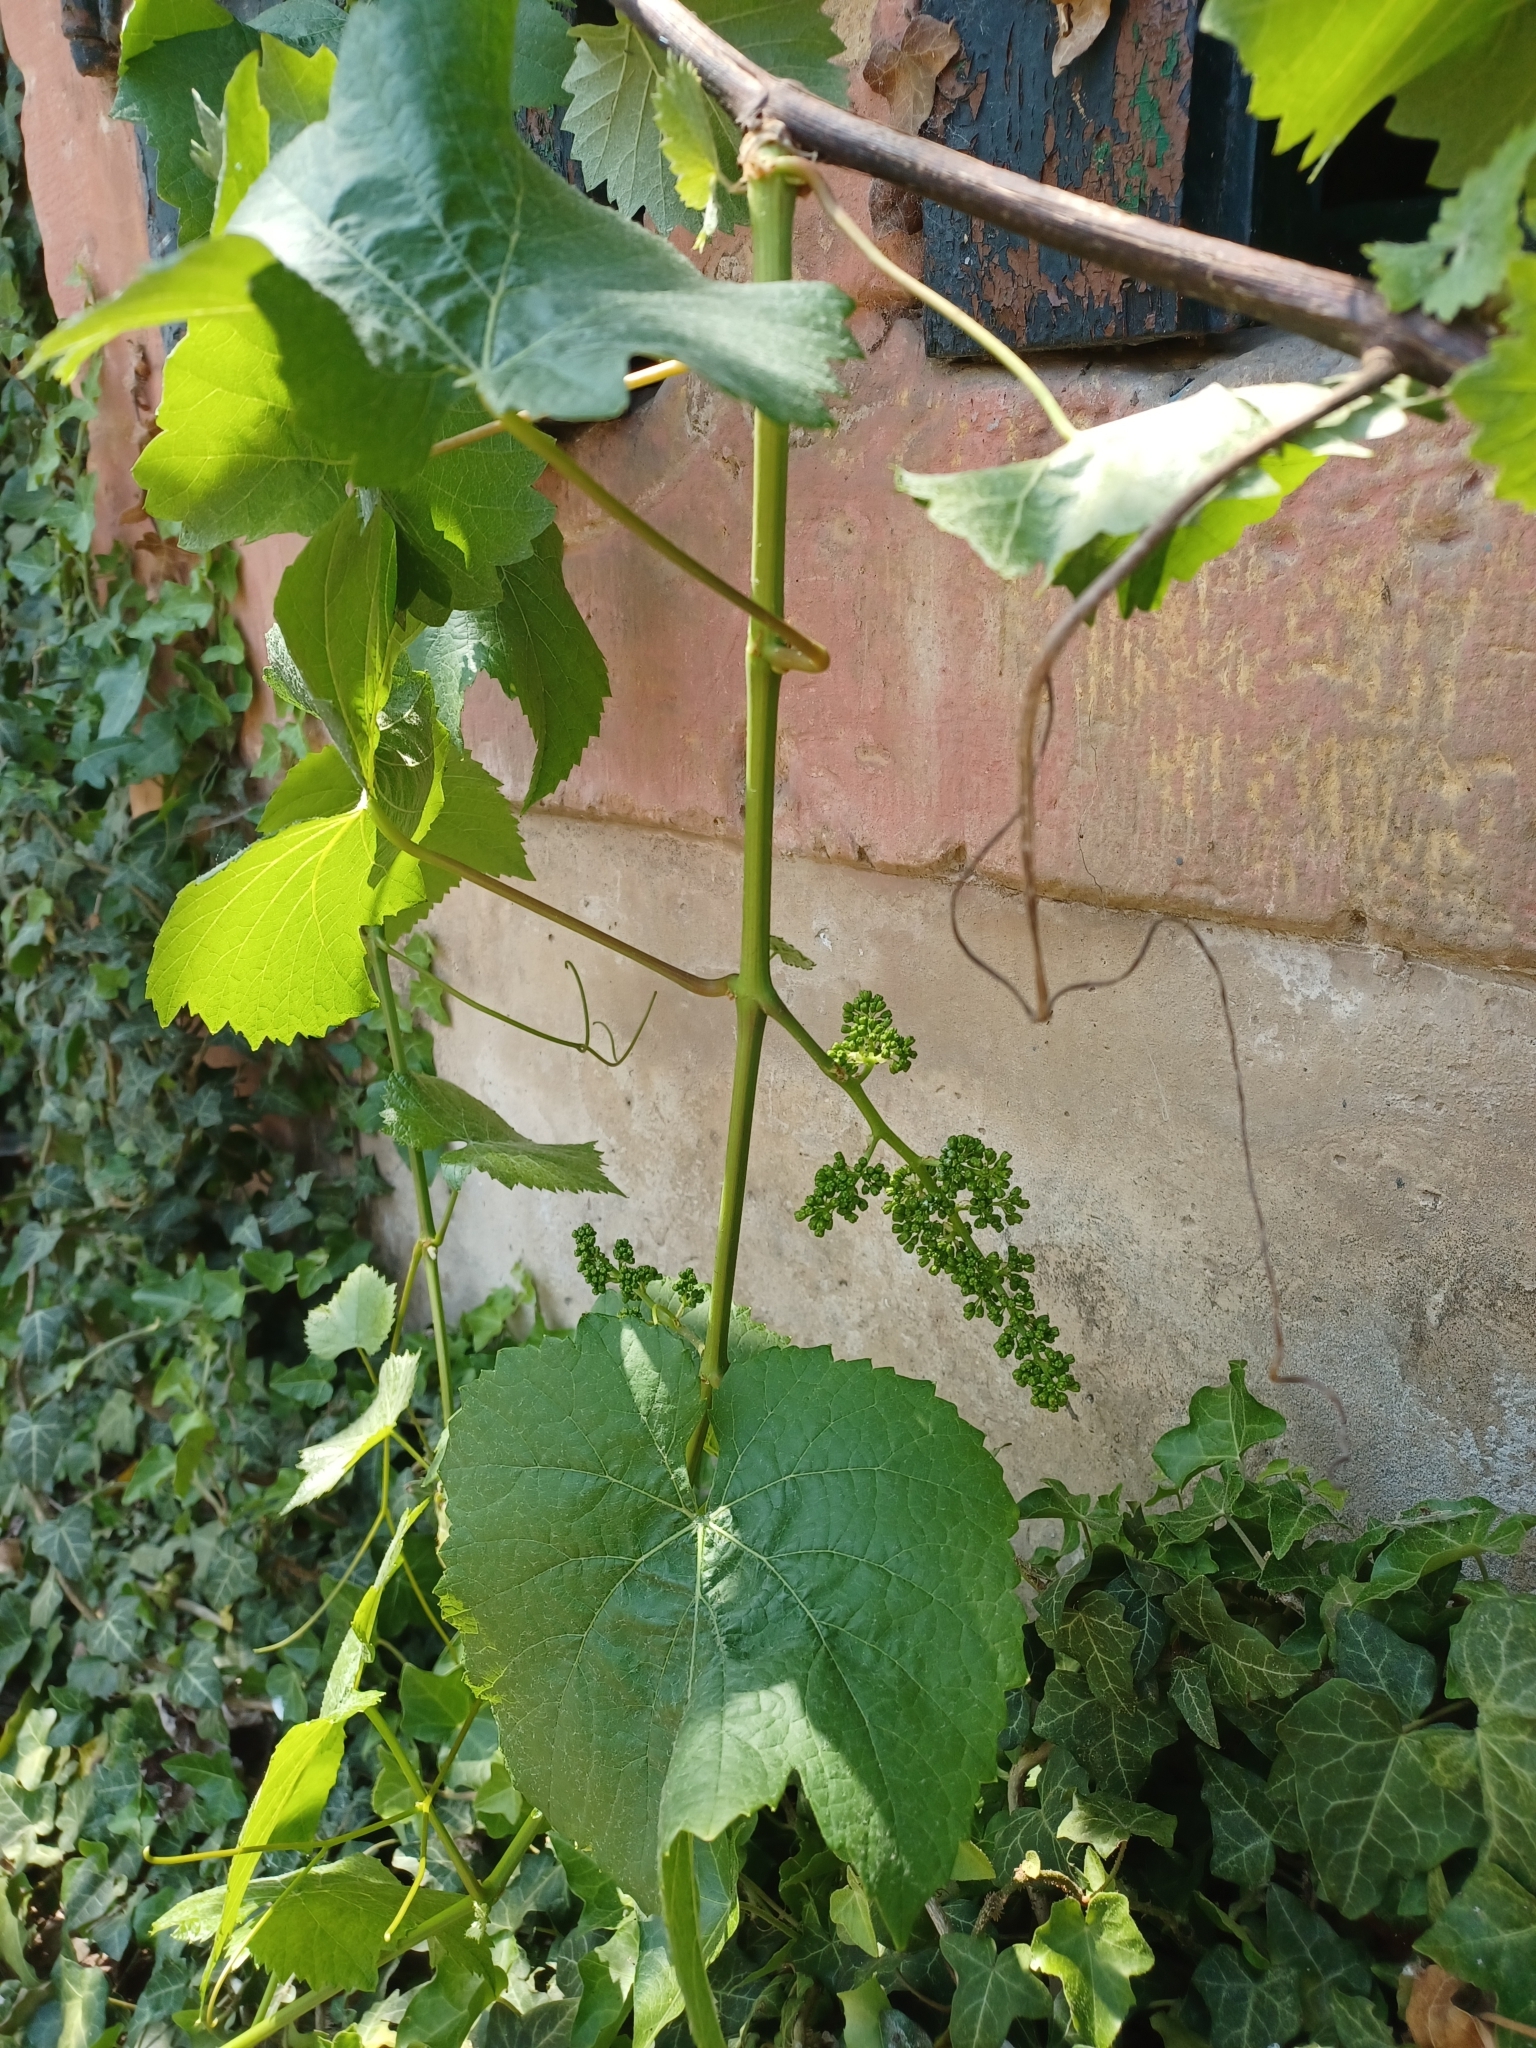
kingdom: Plantae
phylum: Tracheophyta
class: Magnoliopsida
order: Vitales
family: Vitaceae
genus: Vitis
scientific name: Vitis vinifera
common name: Grape-vine
